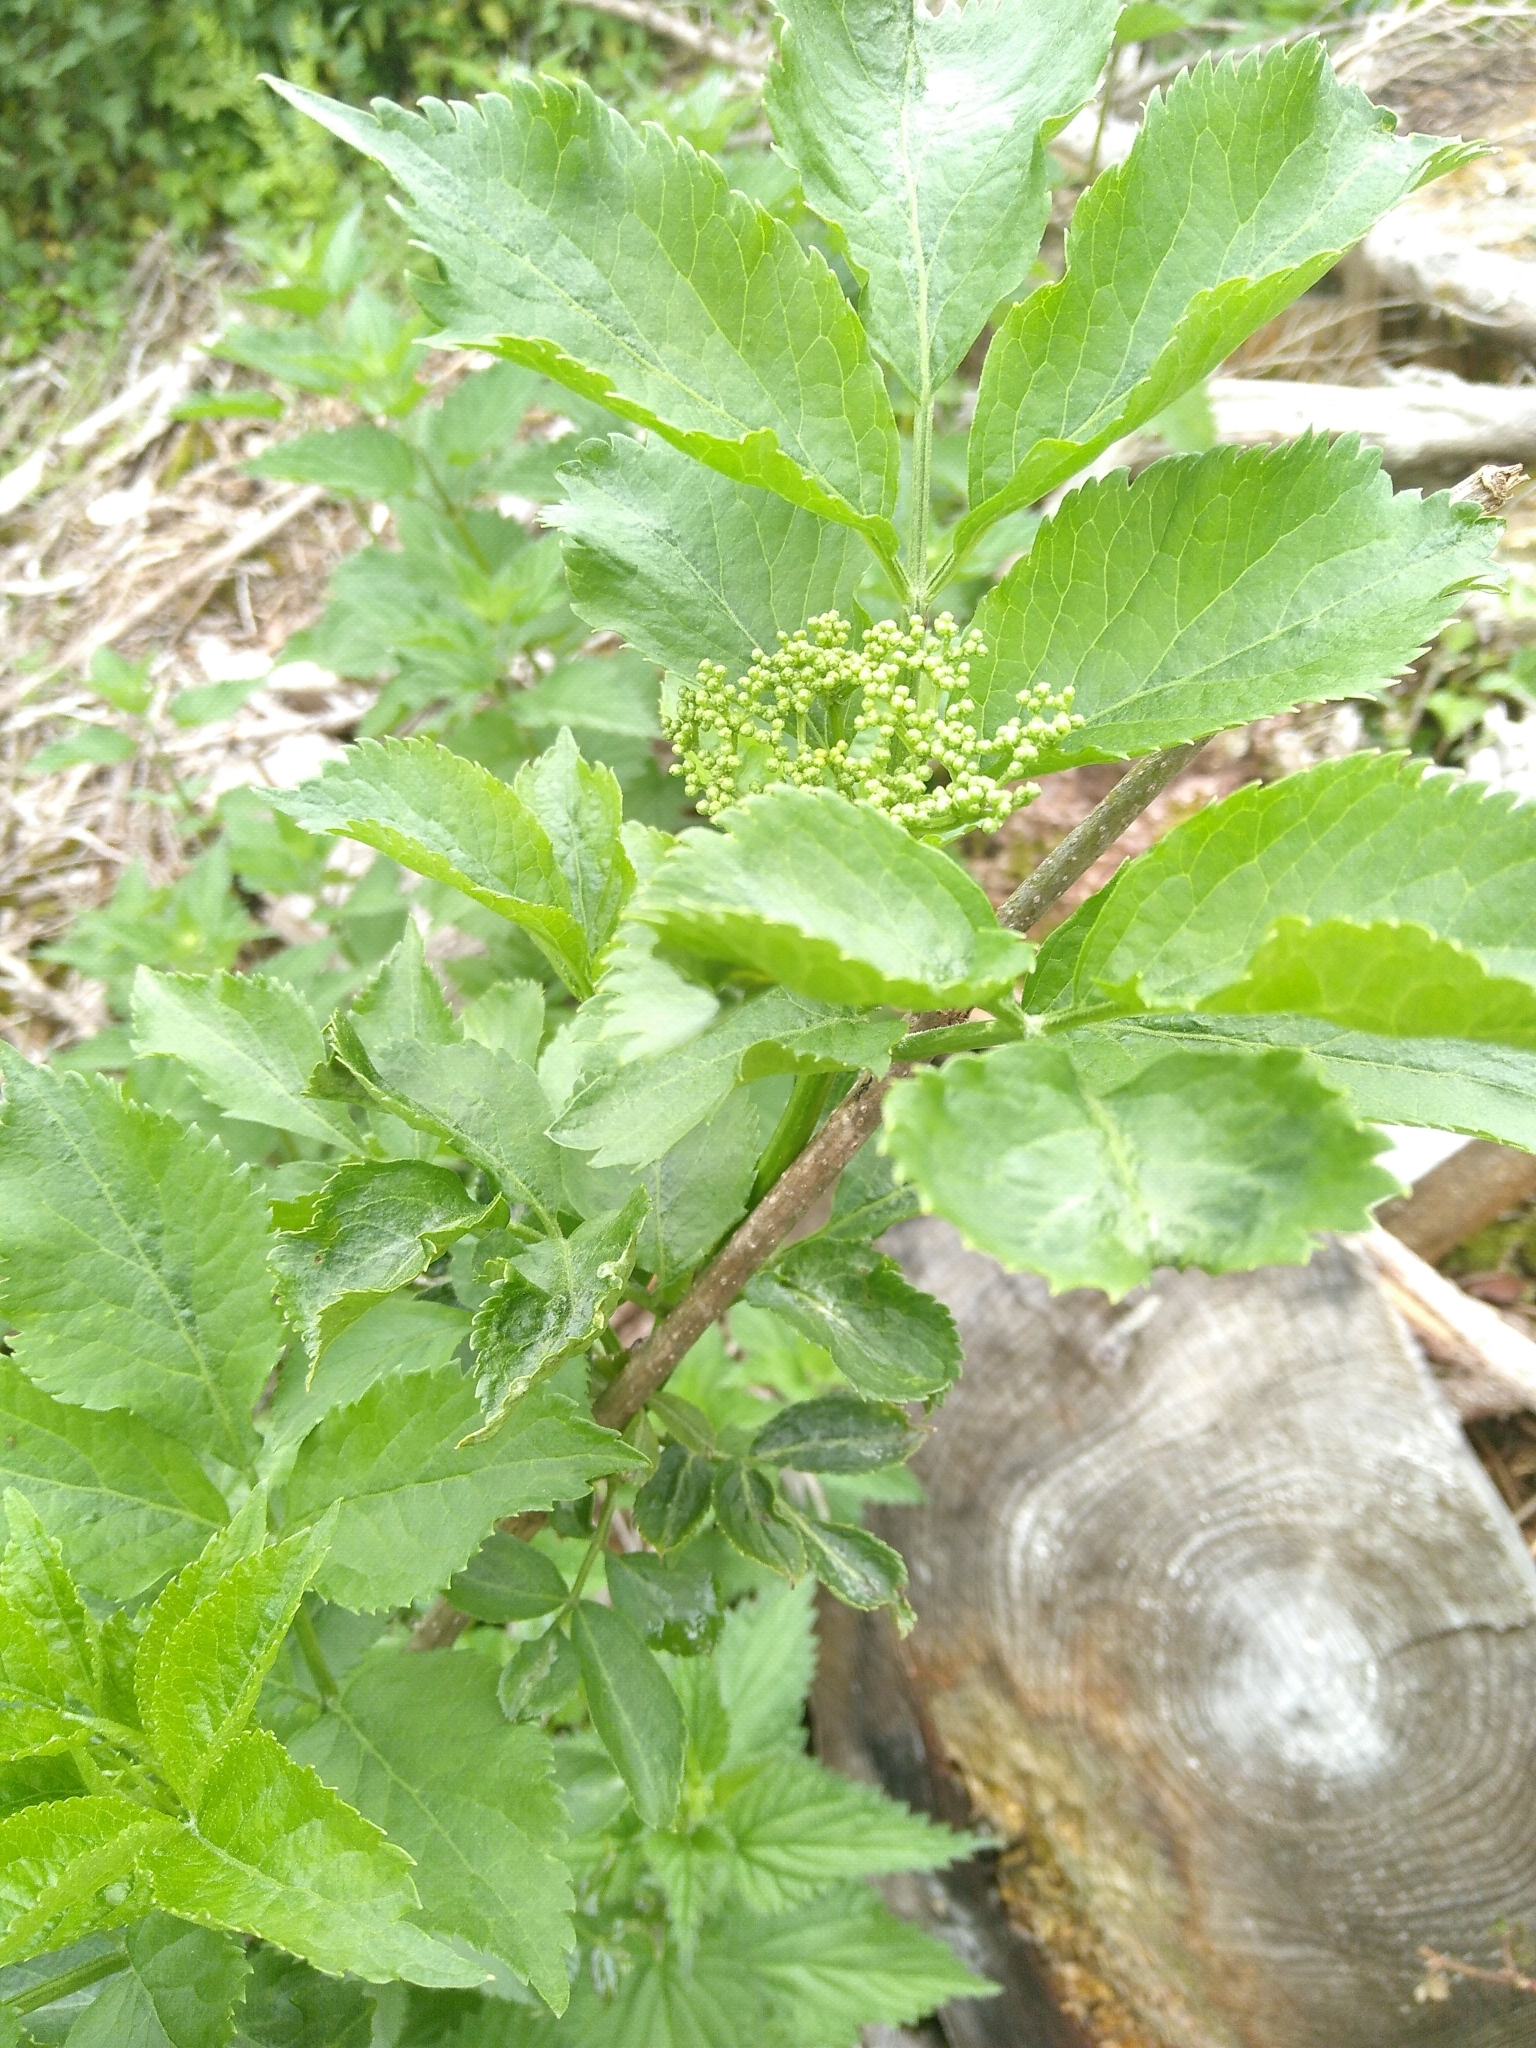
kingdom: Plantae
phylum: Tracheophyta
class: Magnoliopsida
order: Dipsacales
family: Viburnaceae
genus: Sambucus
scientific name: Sambucus nigra
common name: Elder
